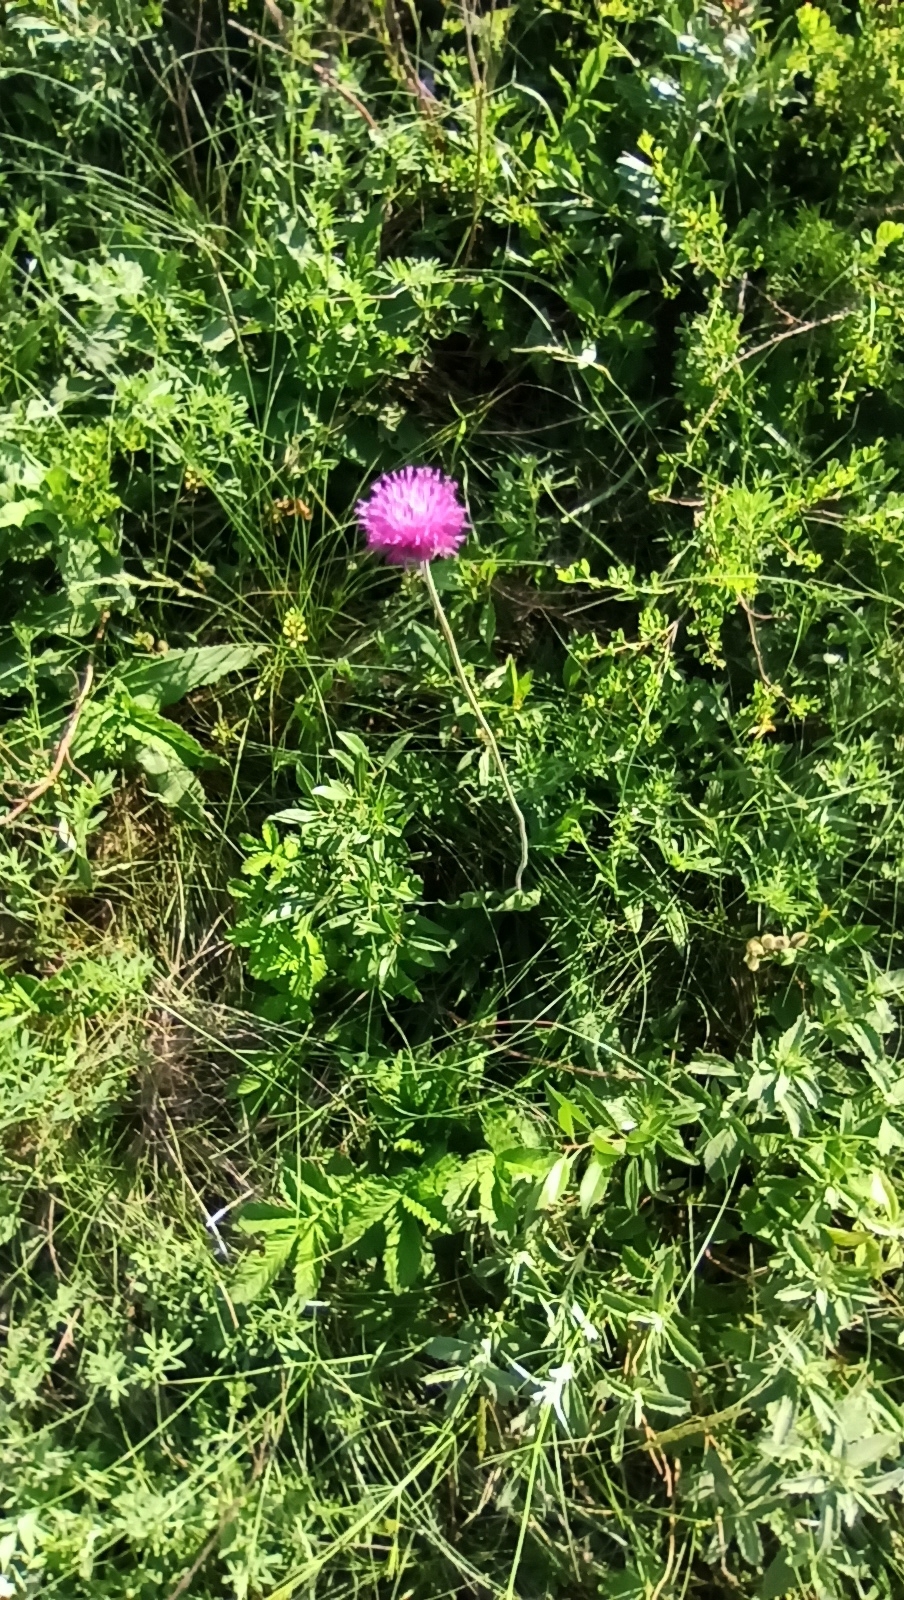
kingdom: Plantae
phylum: Tracheophyta
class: Magnoliopsida
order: Asterales
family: Asteraceae
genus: Jurinea
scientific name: Jurinea arachnoidea
